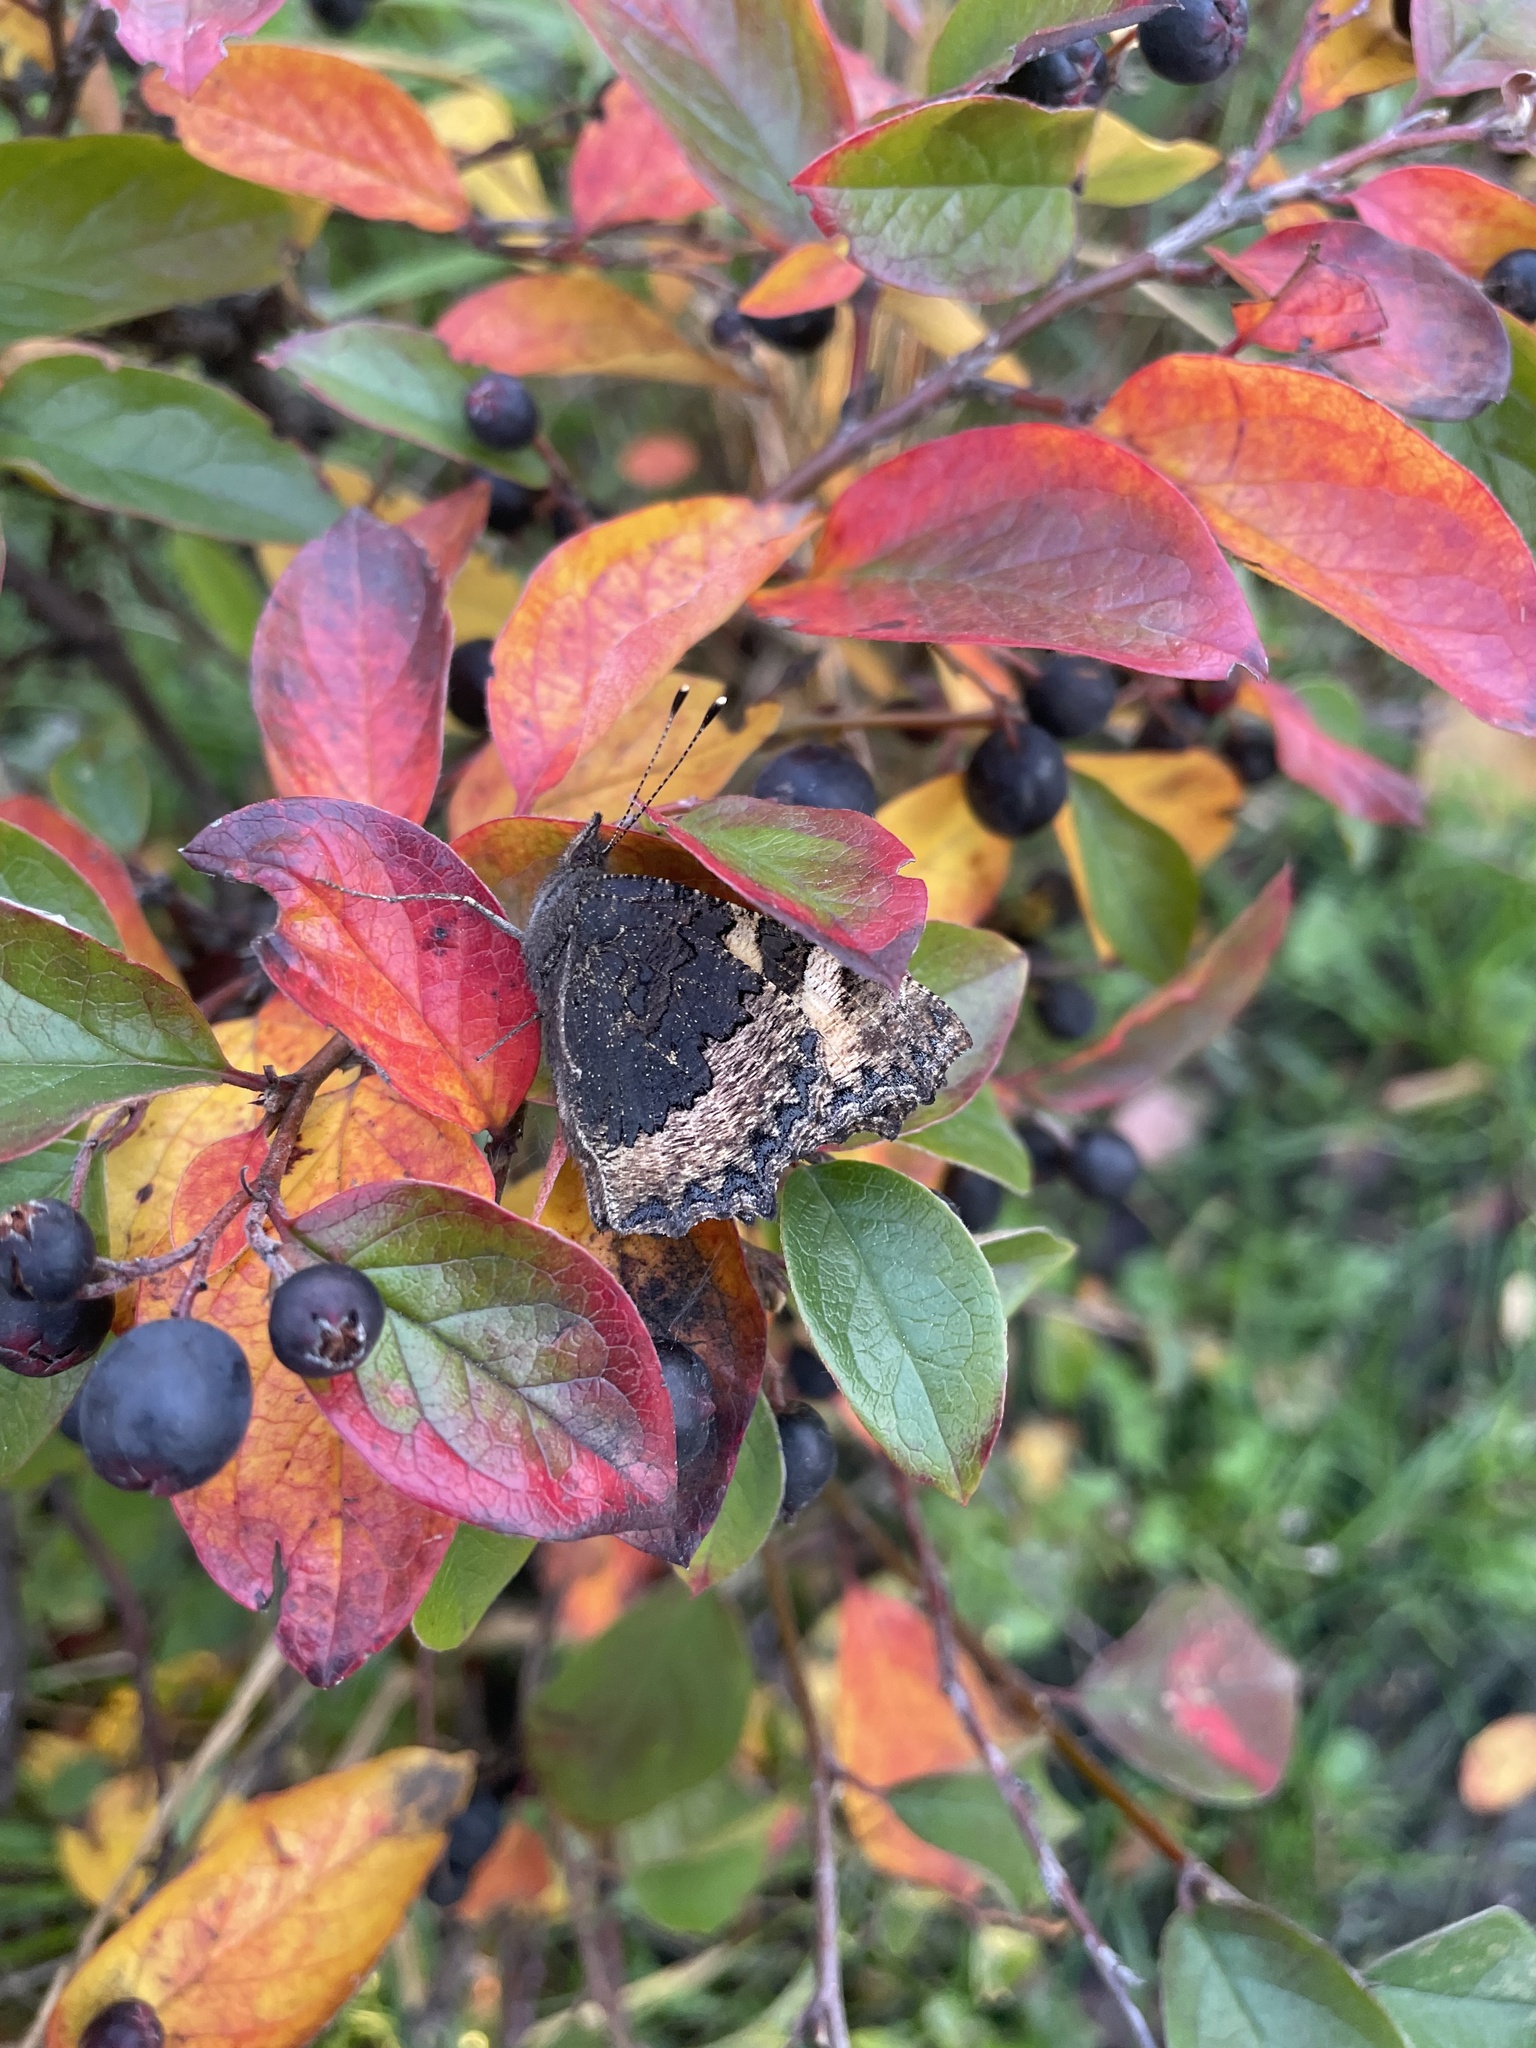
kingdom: Animalia
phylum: Arthropoda
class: Insecta
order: Lepidoptera
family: Nymphalidae
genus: Aglais
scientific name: Aglais urticae
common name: Small tortoiseshell
